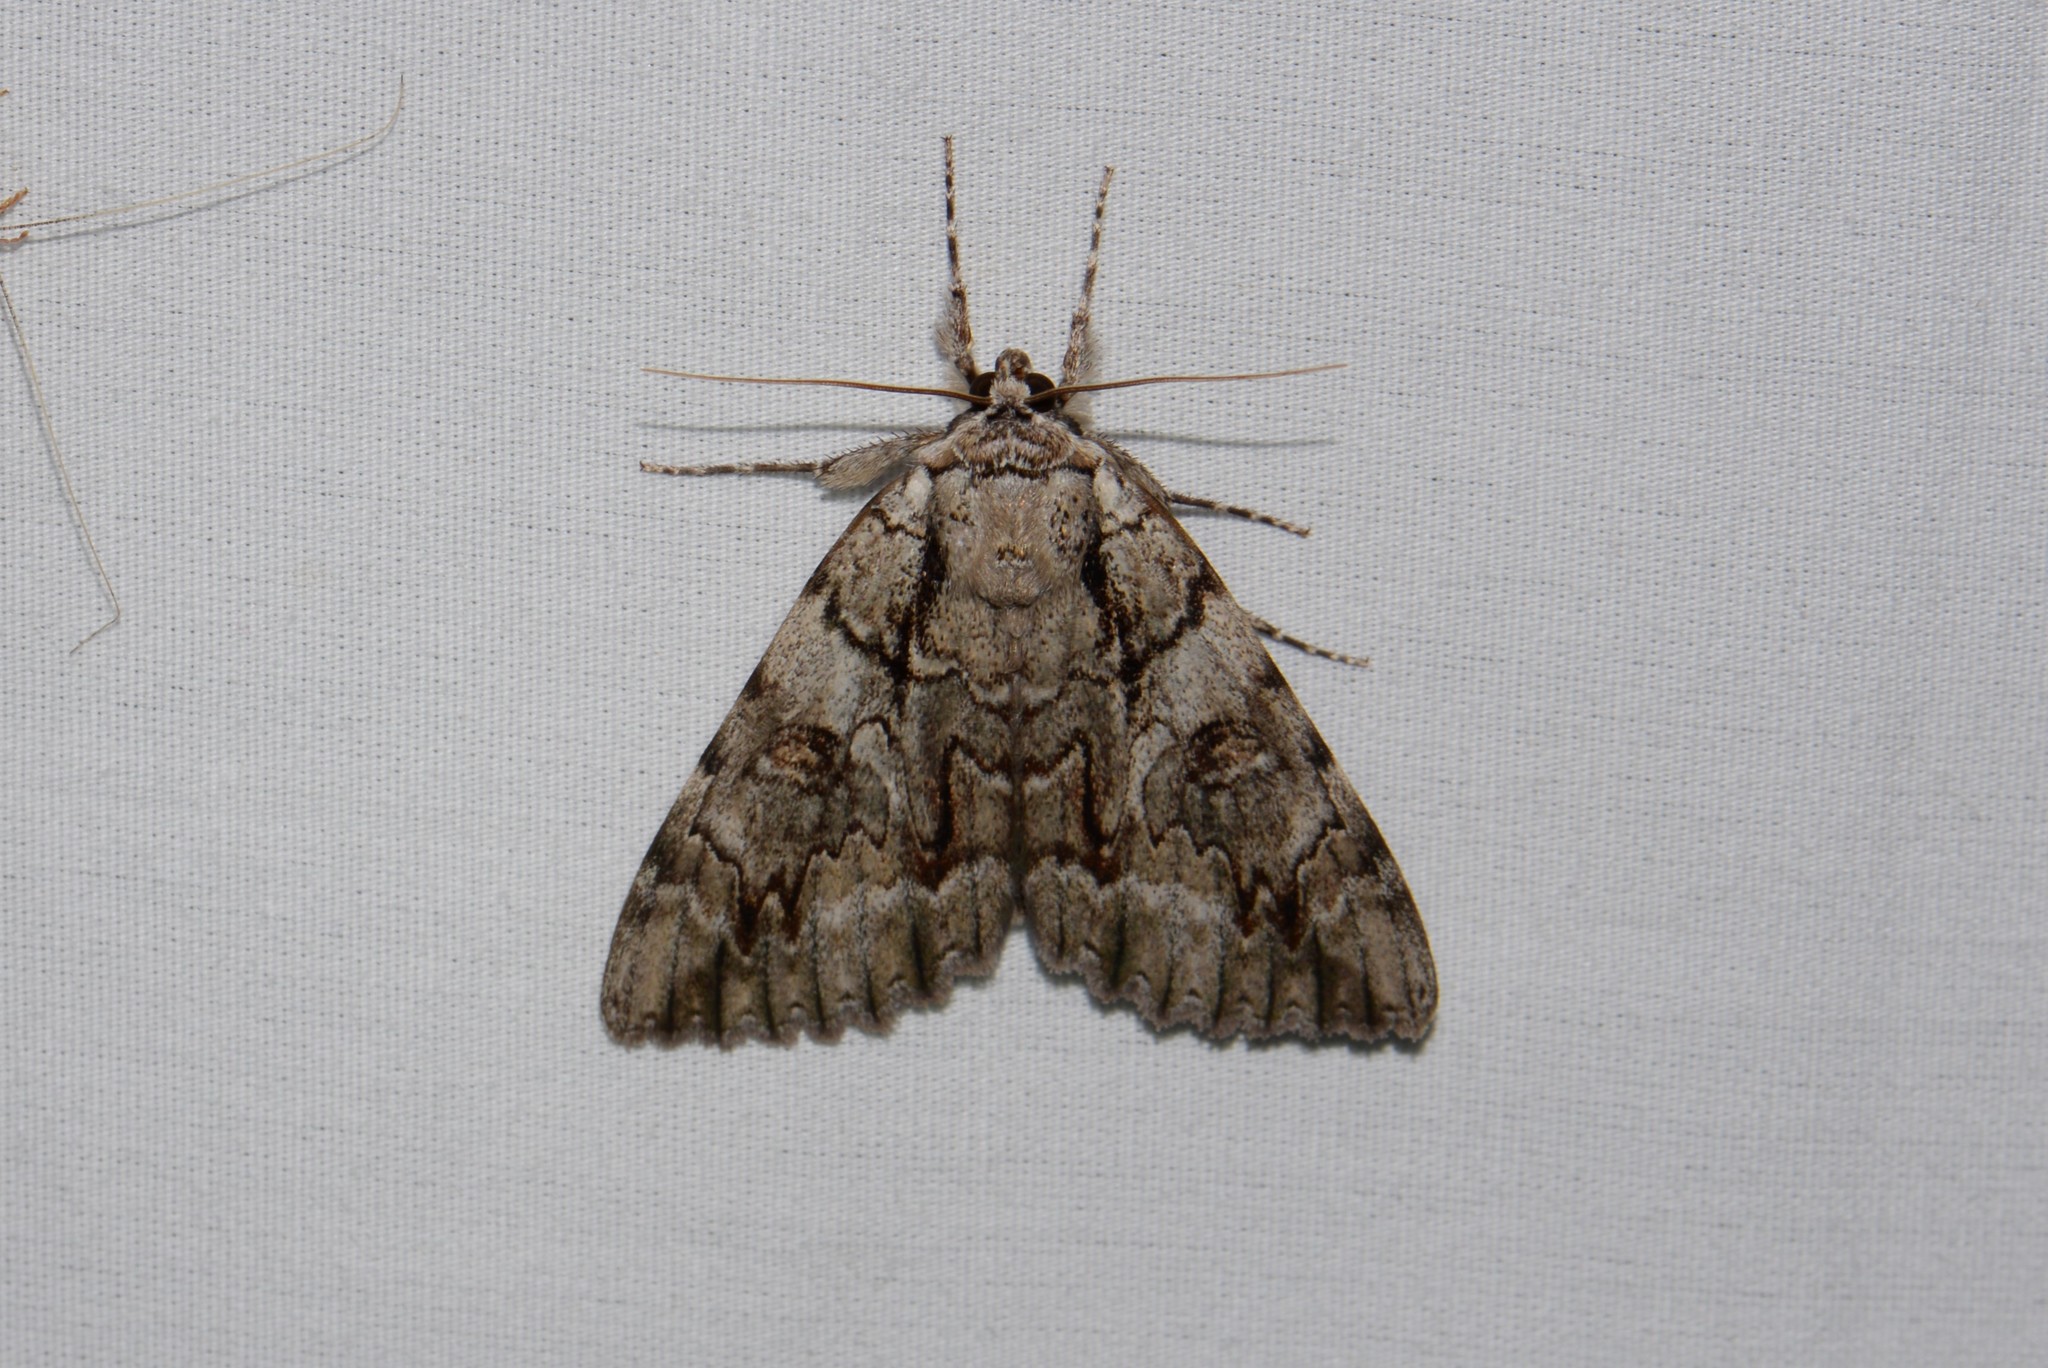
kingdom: Animalia
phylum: Arthropoda
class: Insecta
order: Lepidoptera
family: Erebidae
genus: Catocala
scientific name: Catocala retecta
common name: Yellow-gray underwing
